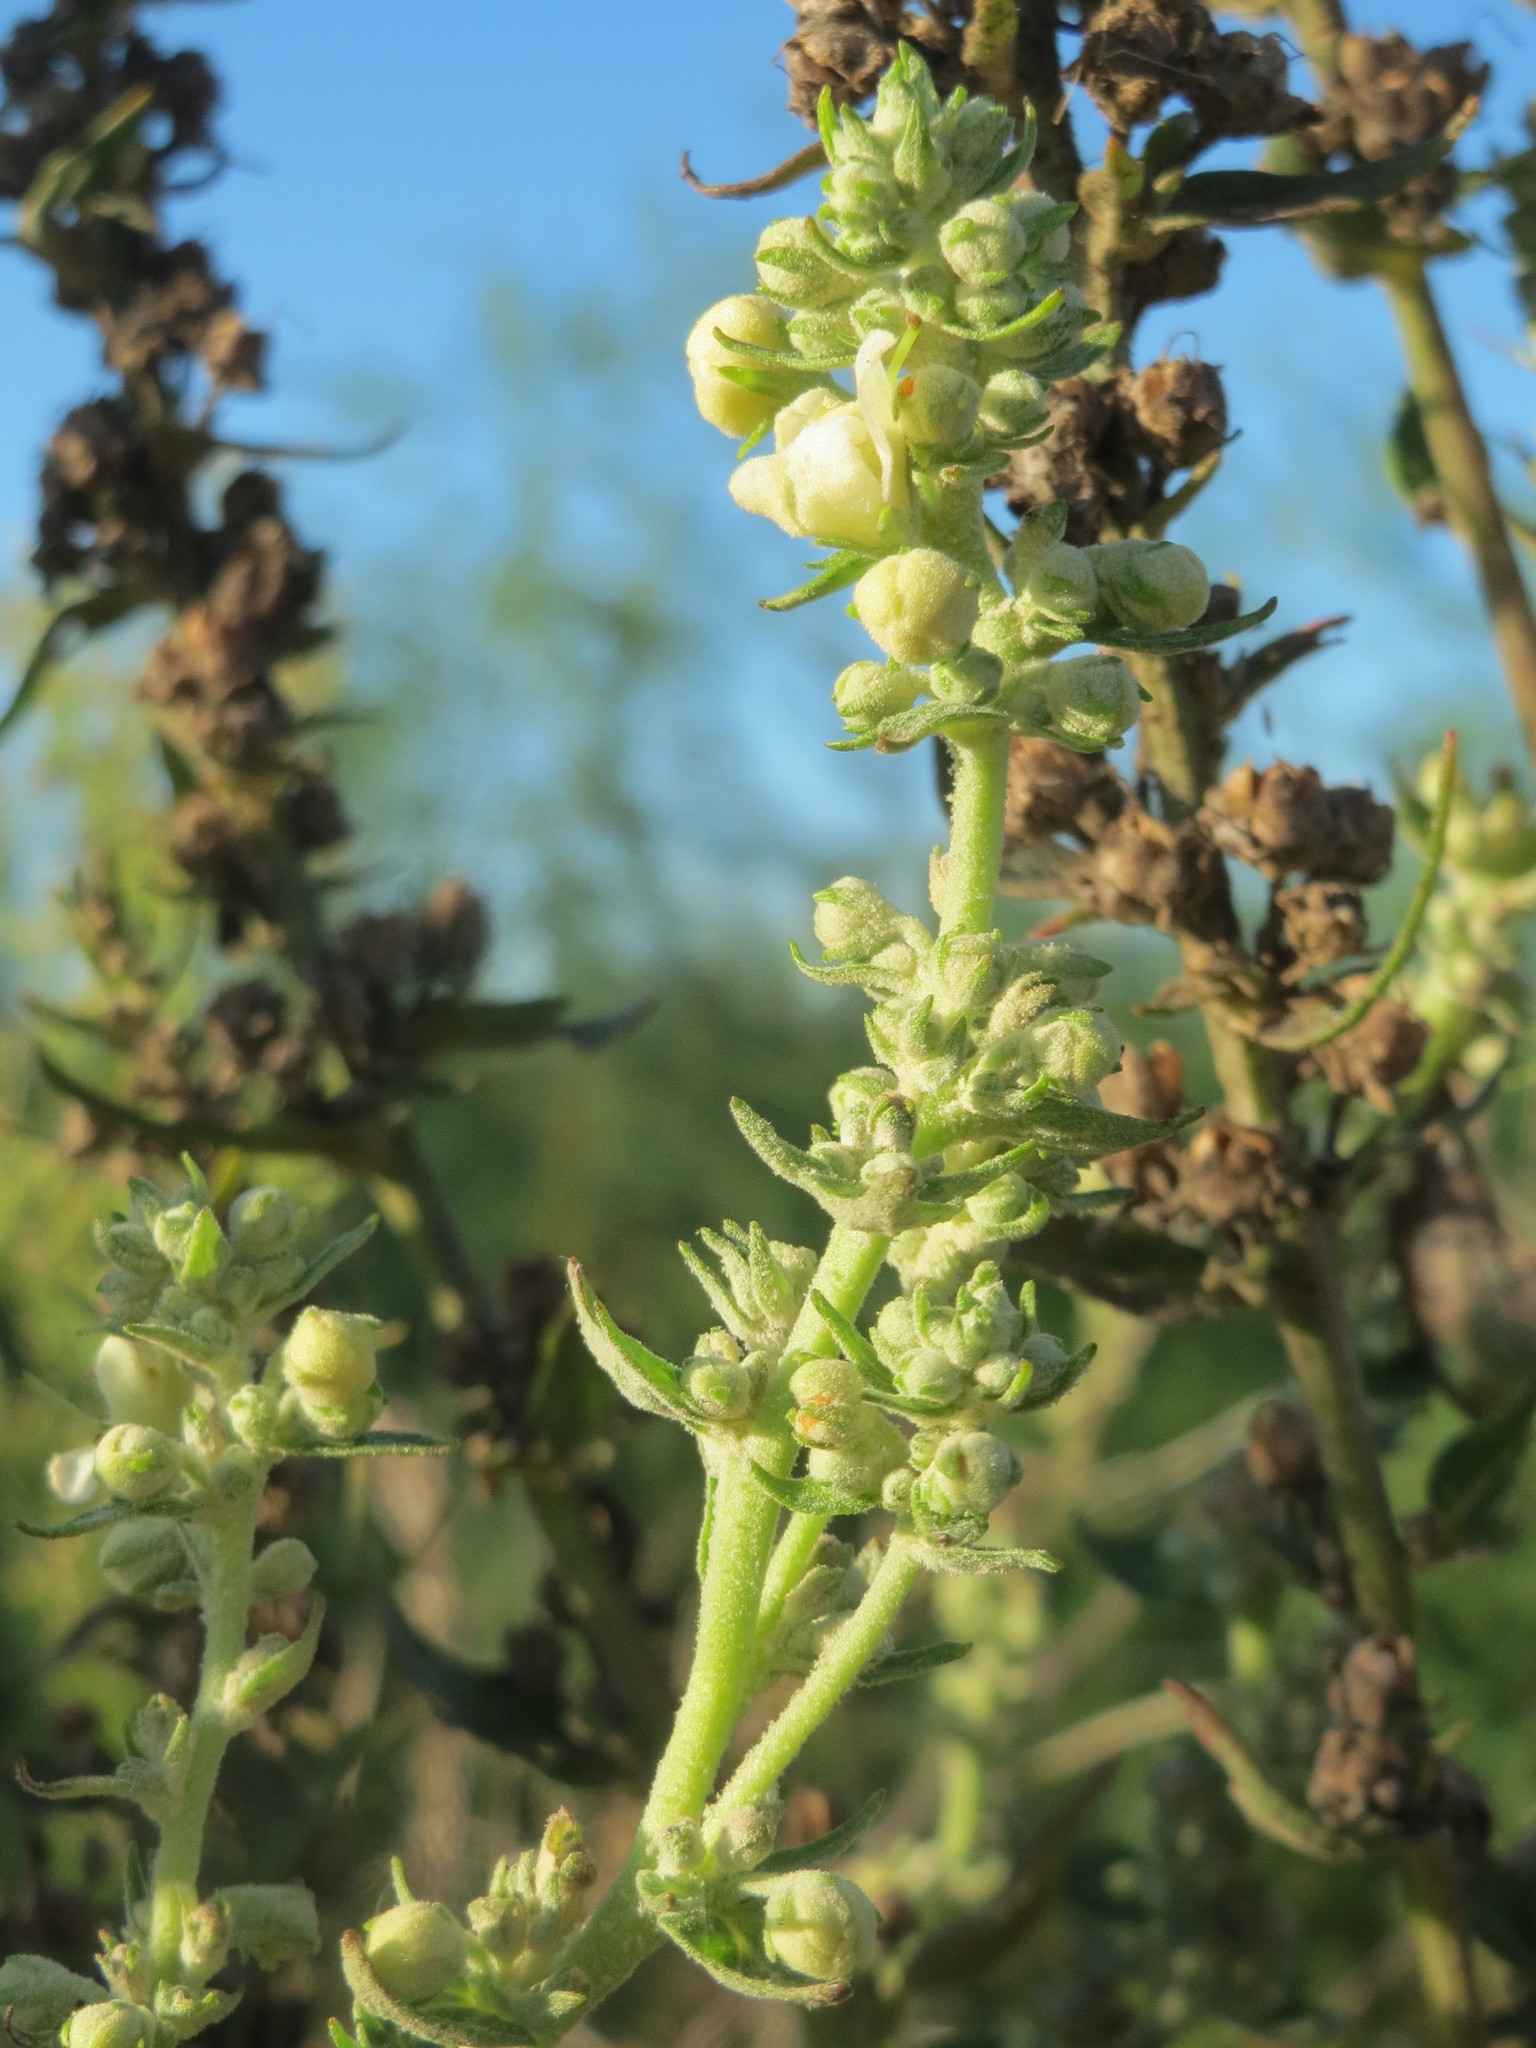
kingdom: Plantae
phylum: Tracheophyta
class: Magnoliopsida
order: Lamiales
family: Scrophulariaceae
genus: Verbascum
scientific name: Verbascum lychnitis
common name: White mullein
